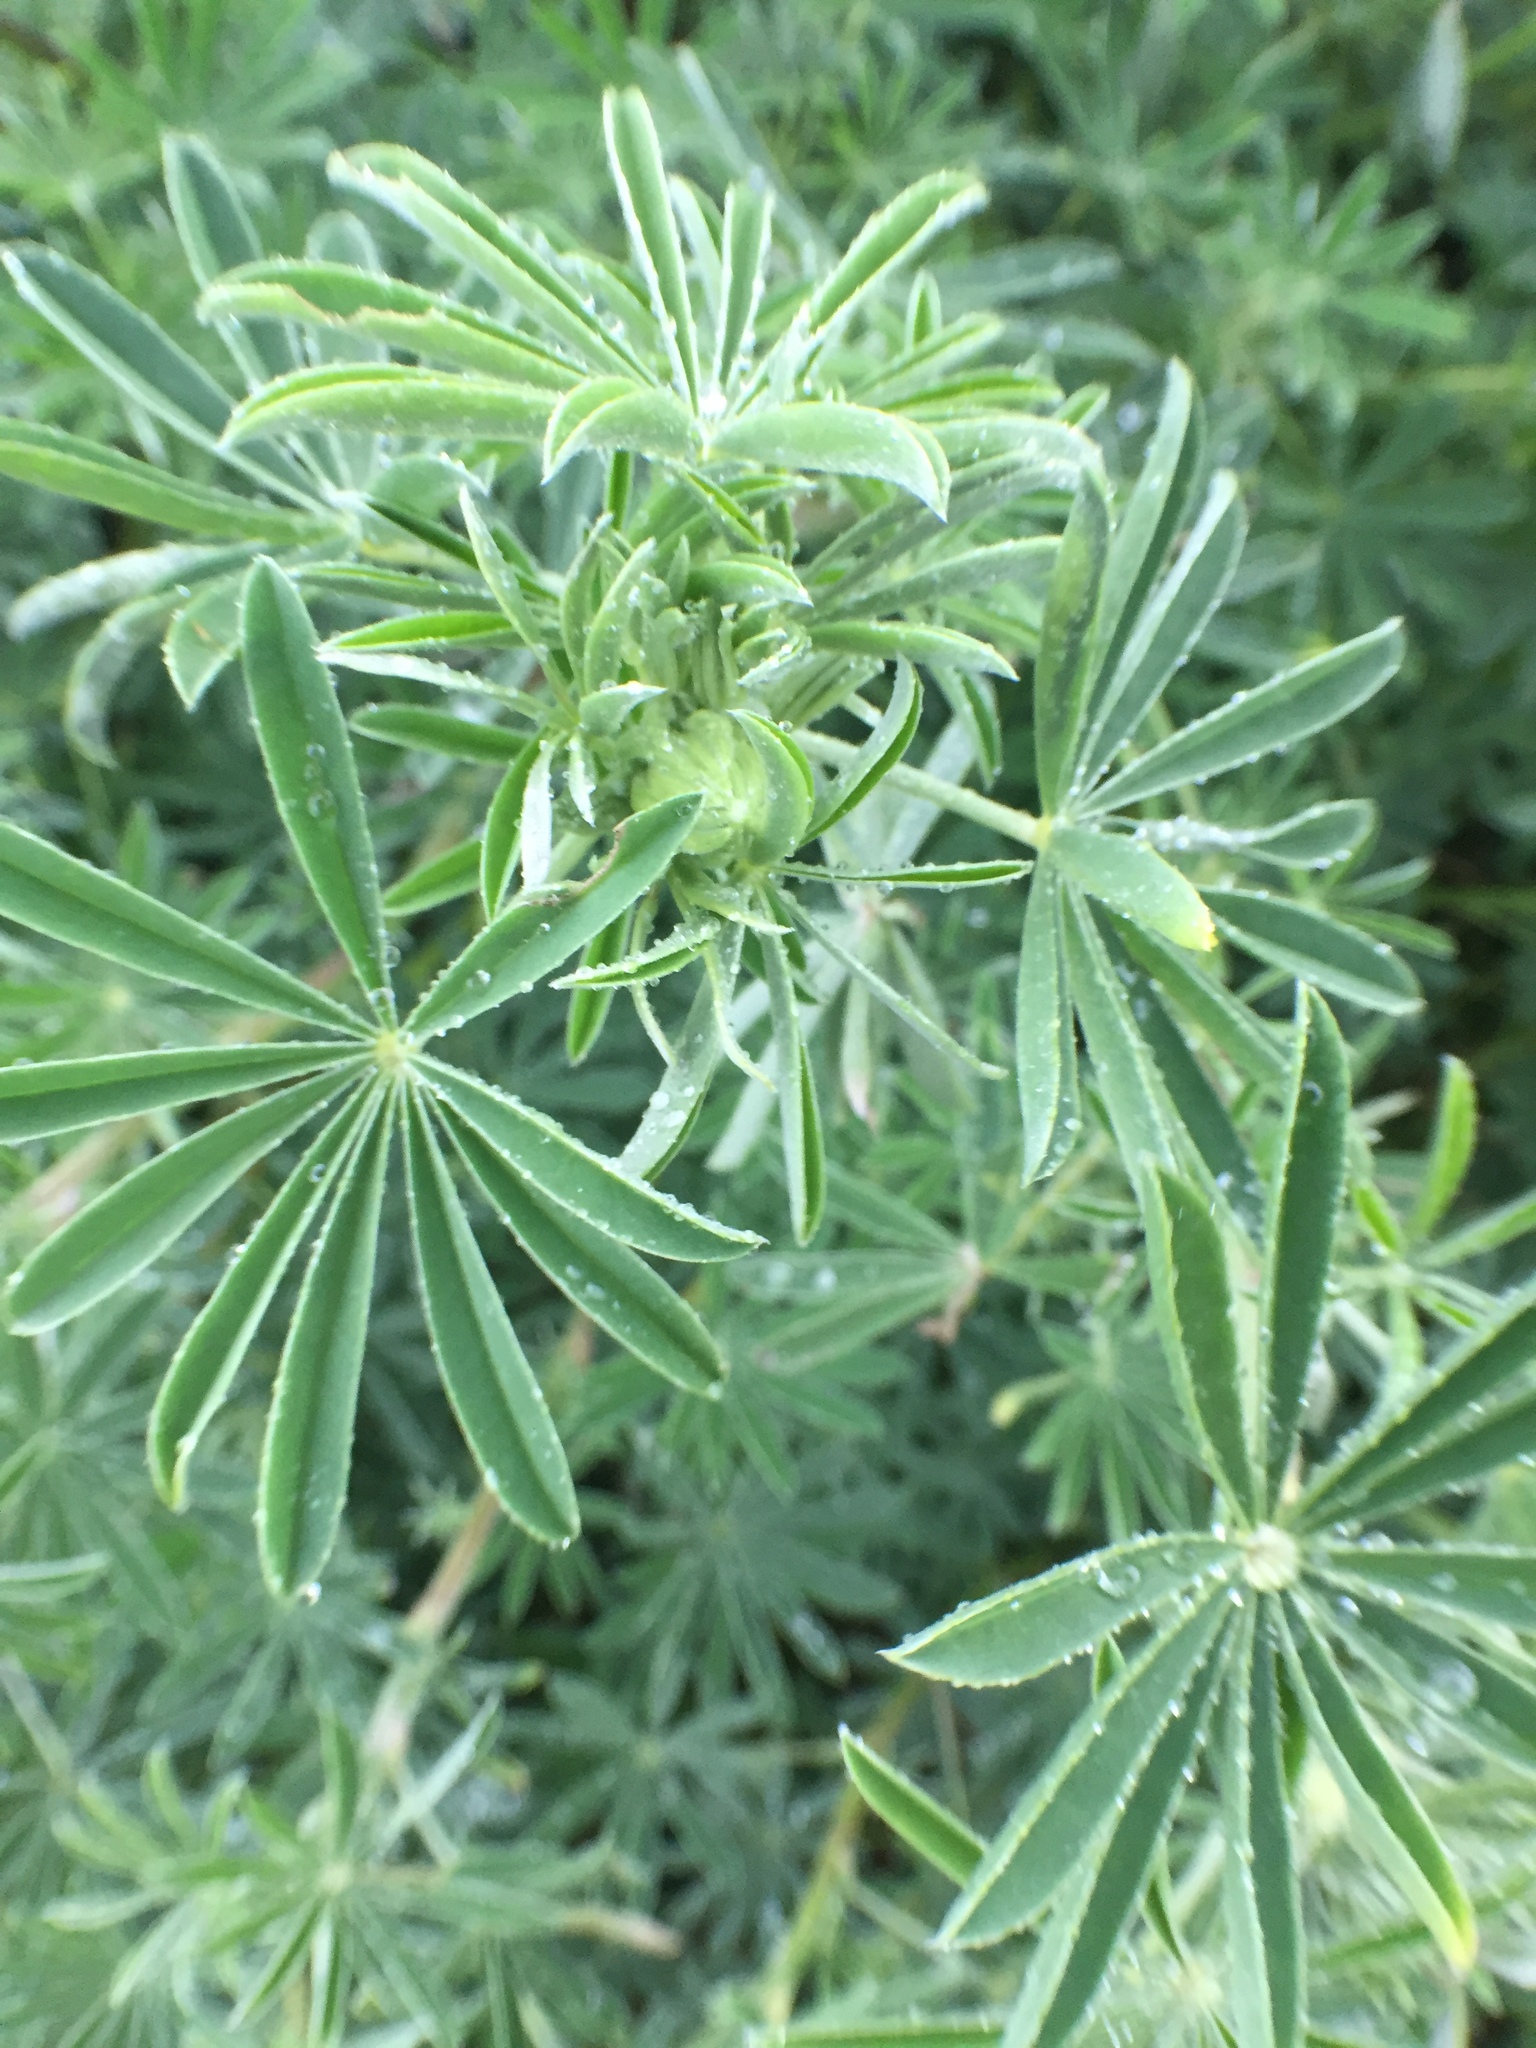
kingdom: Plantae
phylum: Tracheophyta
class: Magnoliopsida
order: Fabales
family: Fabaceae
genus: Lupinus
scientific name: Lupinus arboreus
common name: Yellow bush lupine
